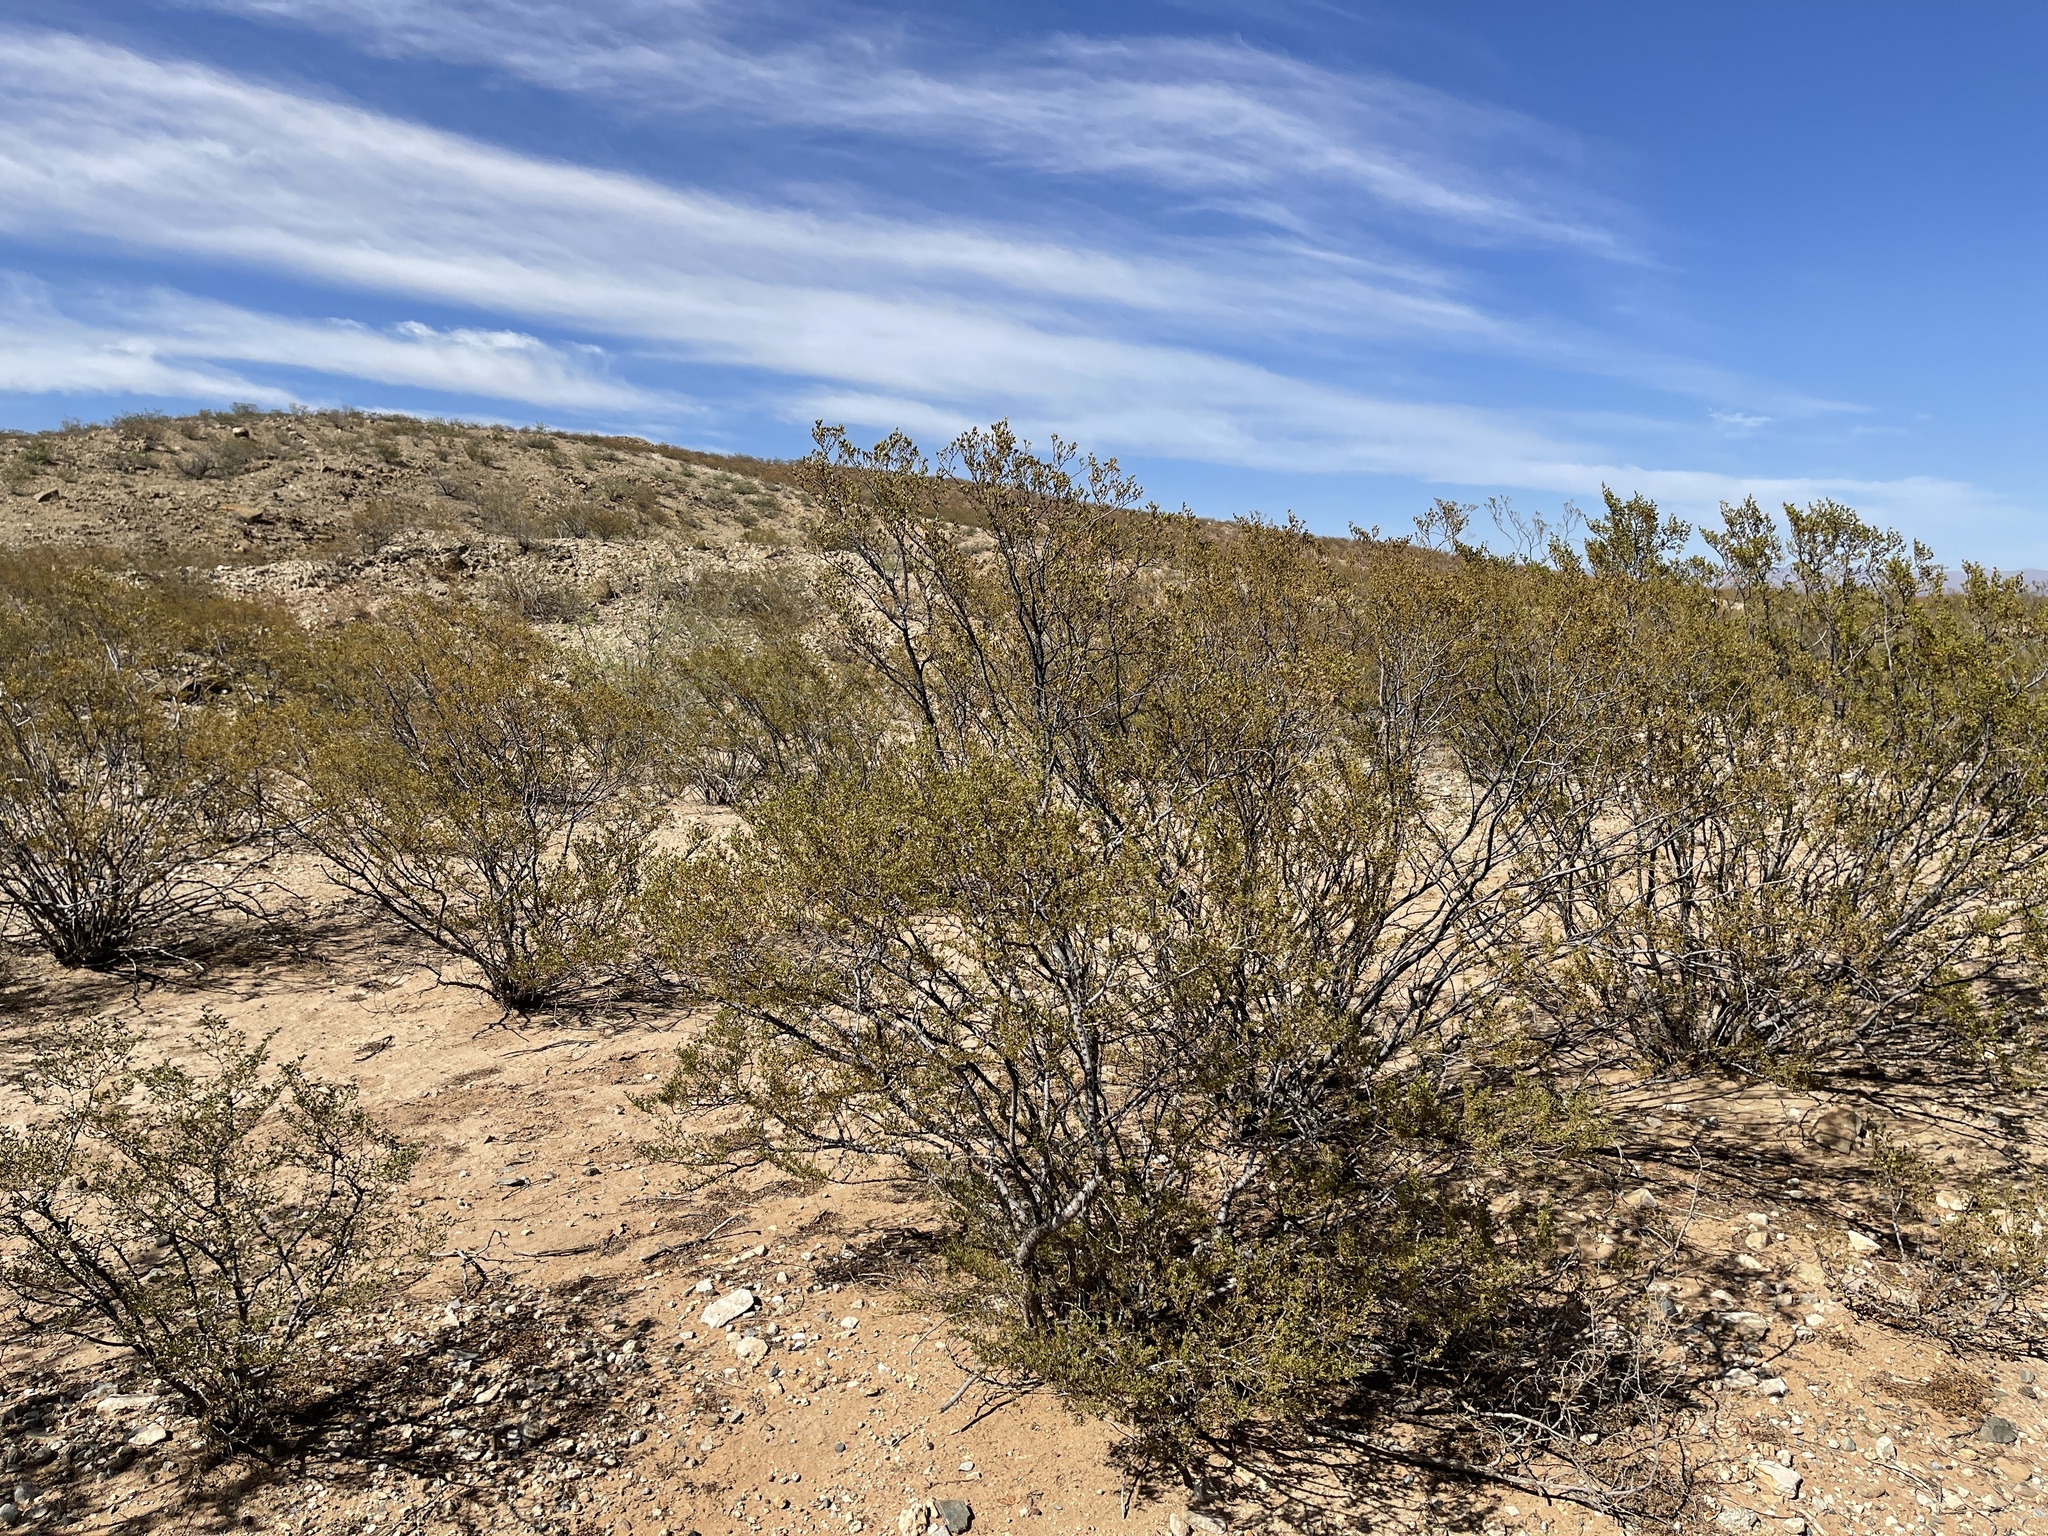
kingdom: Plantae
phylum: Tracheophyta
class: Magnoliopsida
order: Zygophyllales
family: Zygophyllaceae
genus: Larrea
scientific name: Larrea tridentata
